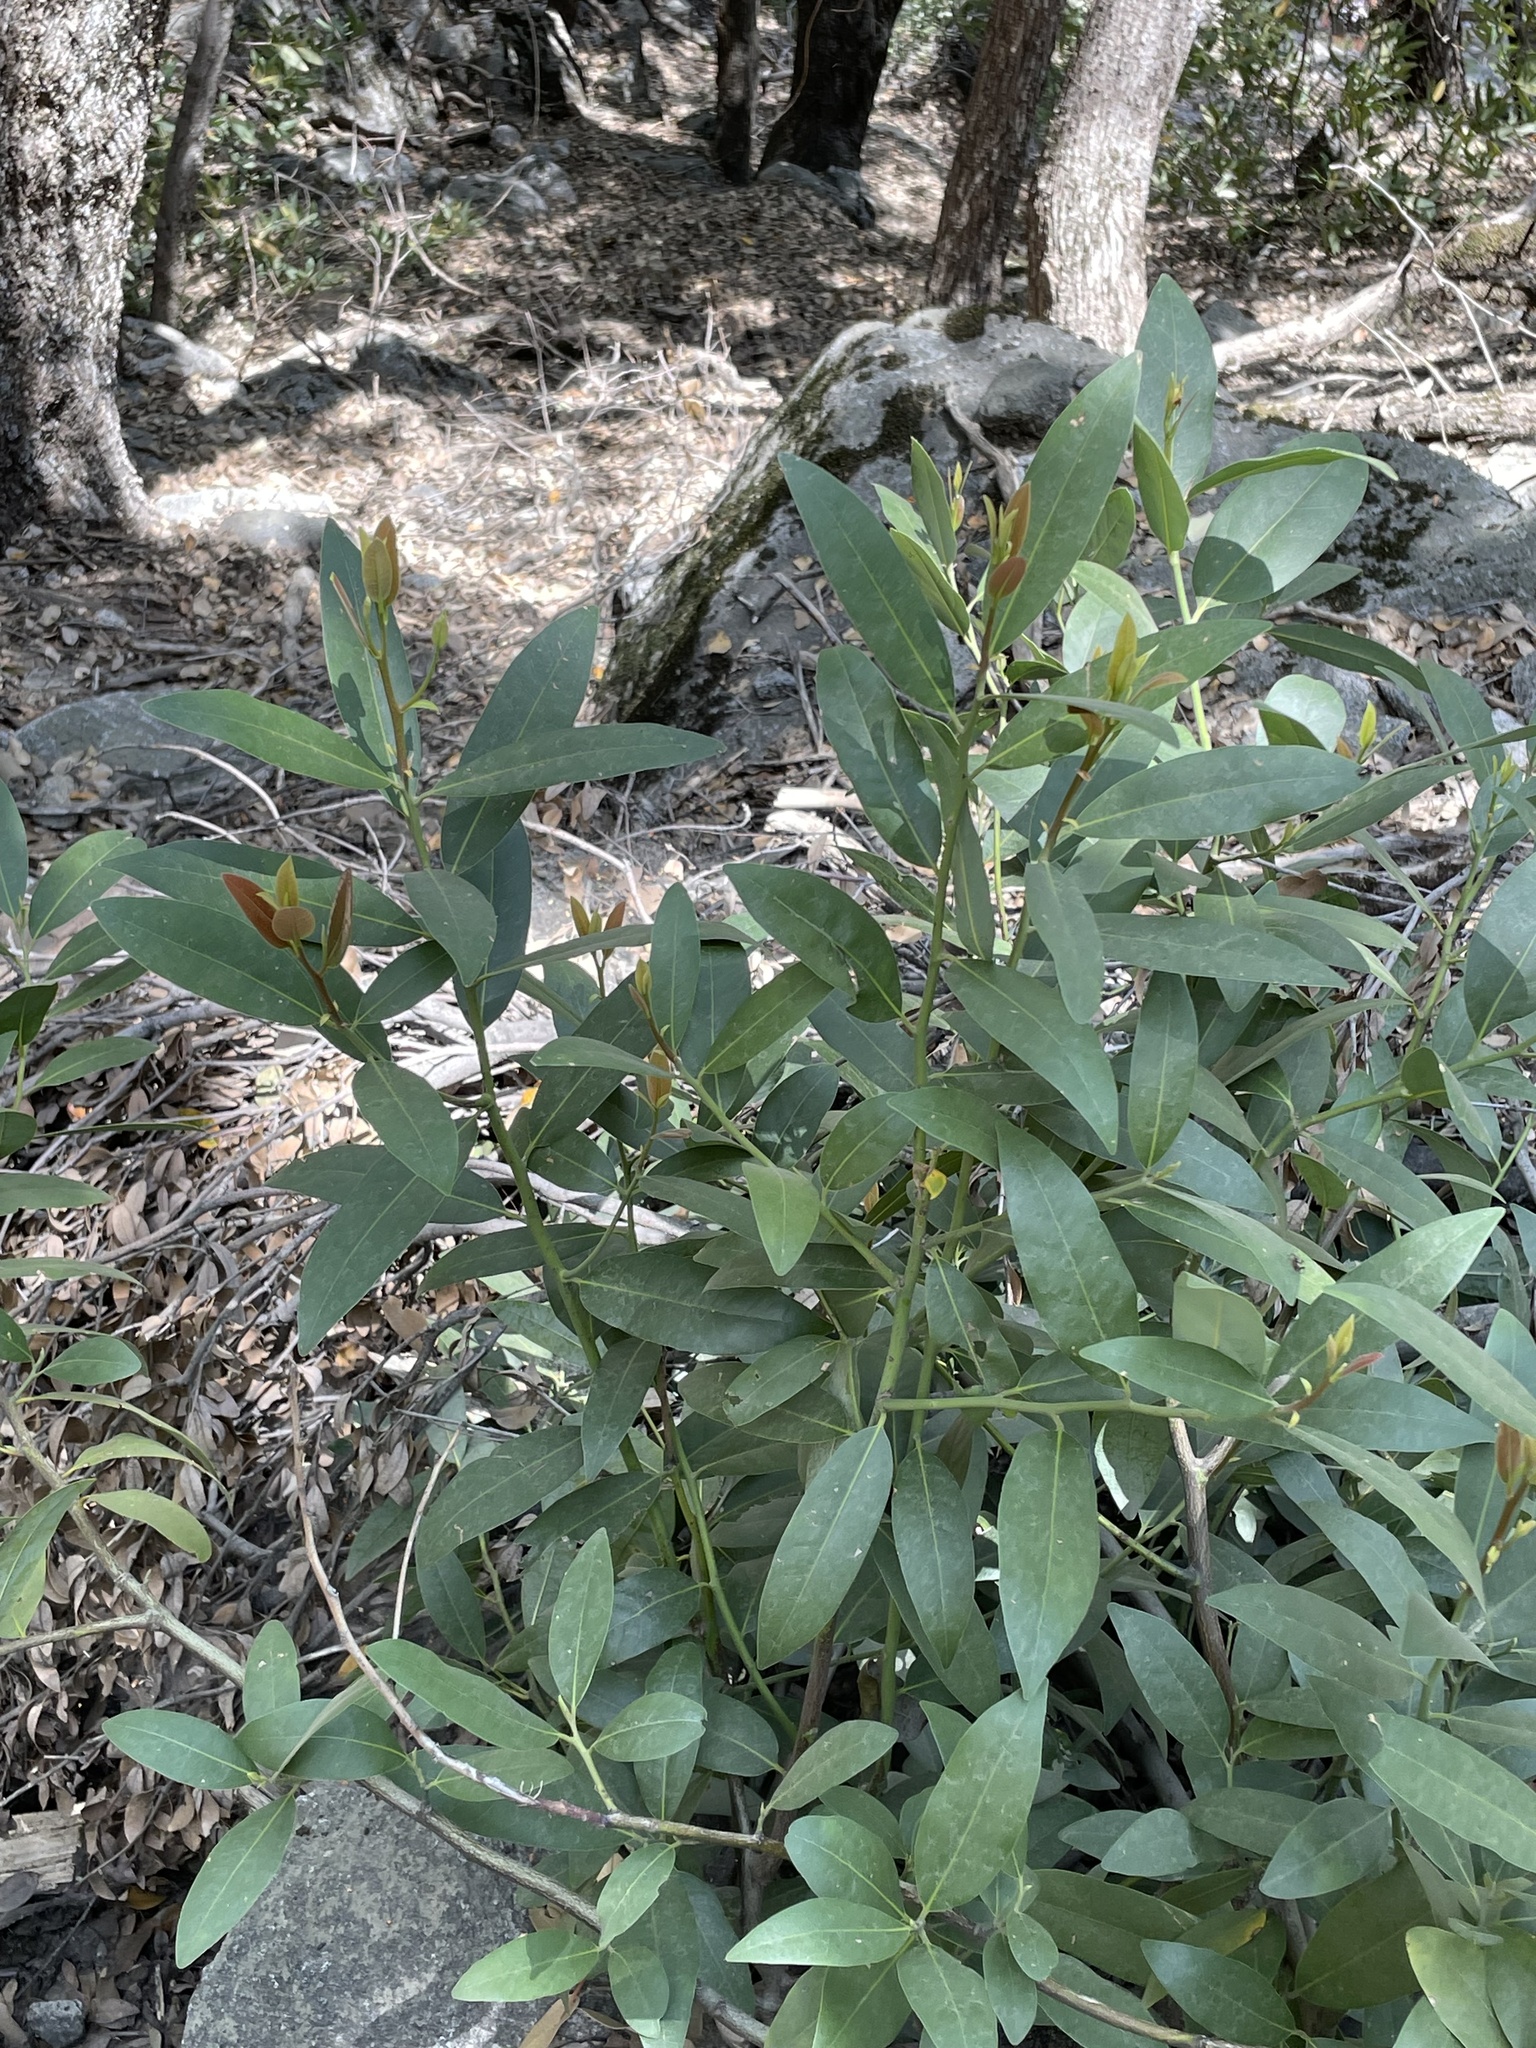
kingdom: Plantae
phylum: Tracheophyta
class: Magnoliopsida
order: Laurales
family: Lauraceae
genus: Umbellularia
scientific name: Umbellularia californica
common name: California bay
